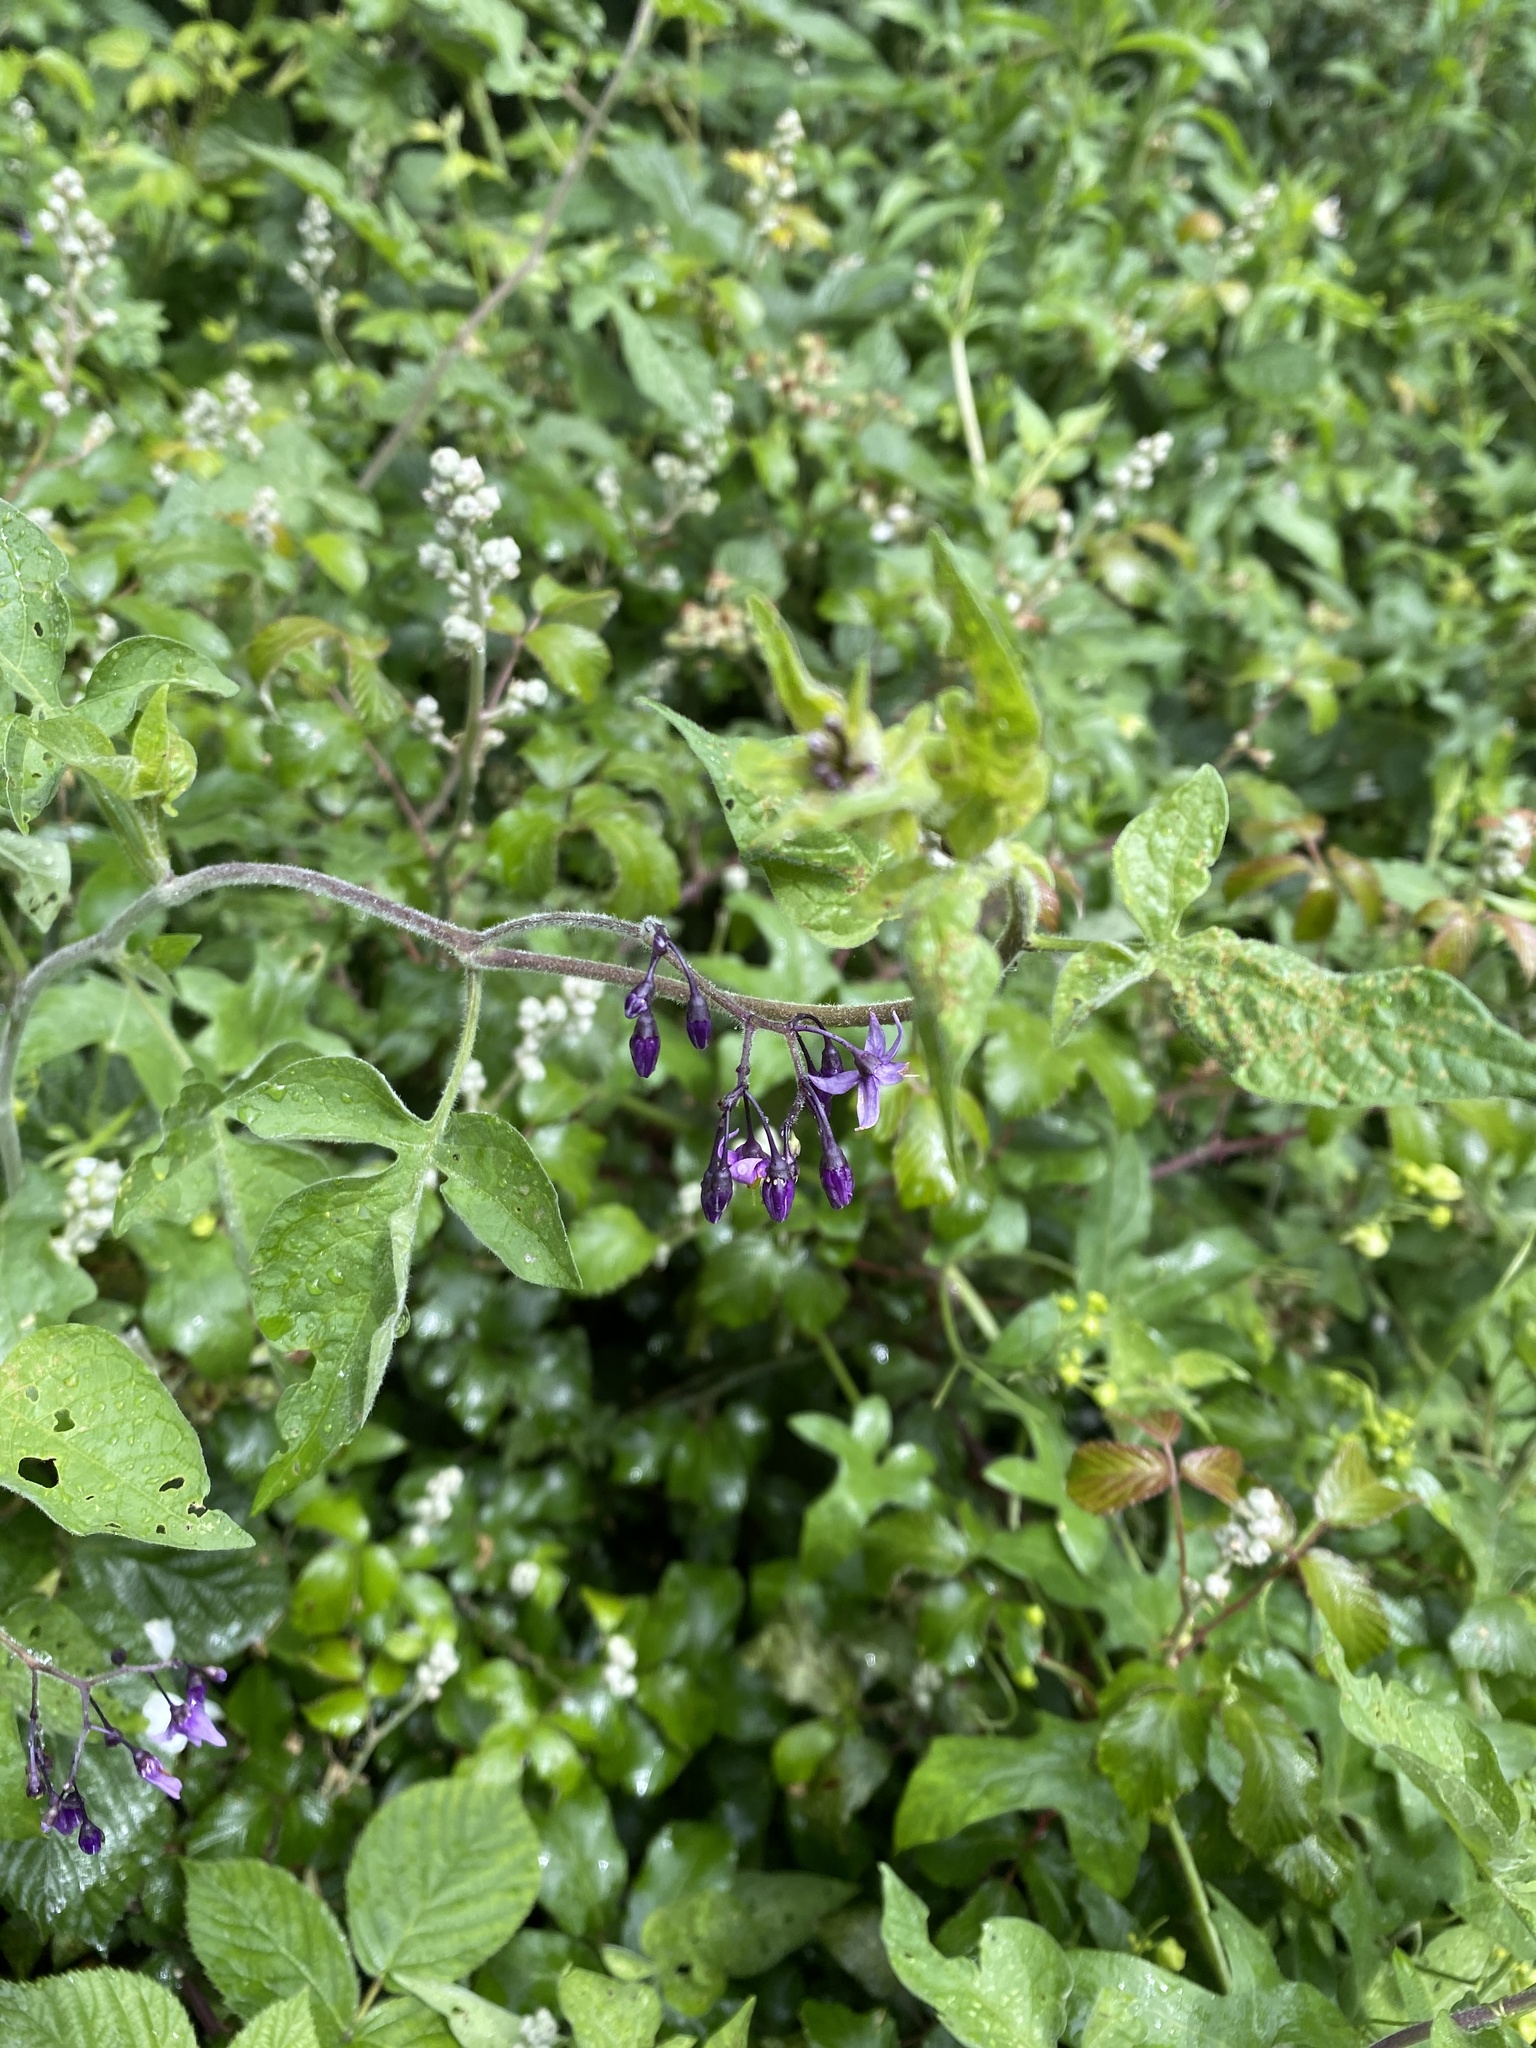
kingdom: Plantae
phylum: Tracheophyta
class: Magnoliopsida
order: Solanales
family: Solanaceae
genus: Solanum
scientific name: Solanum dulcamara
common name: Climbing nightshade
